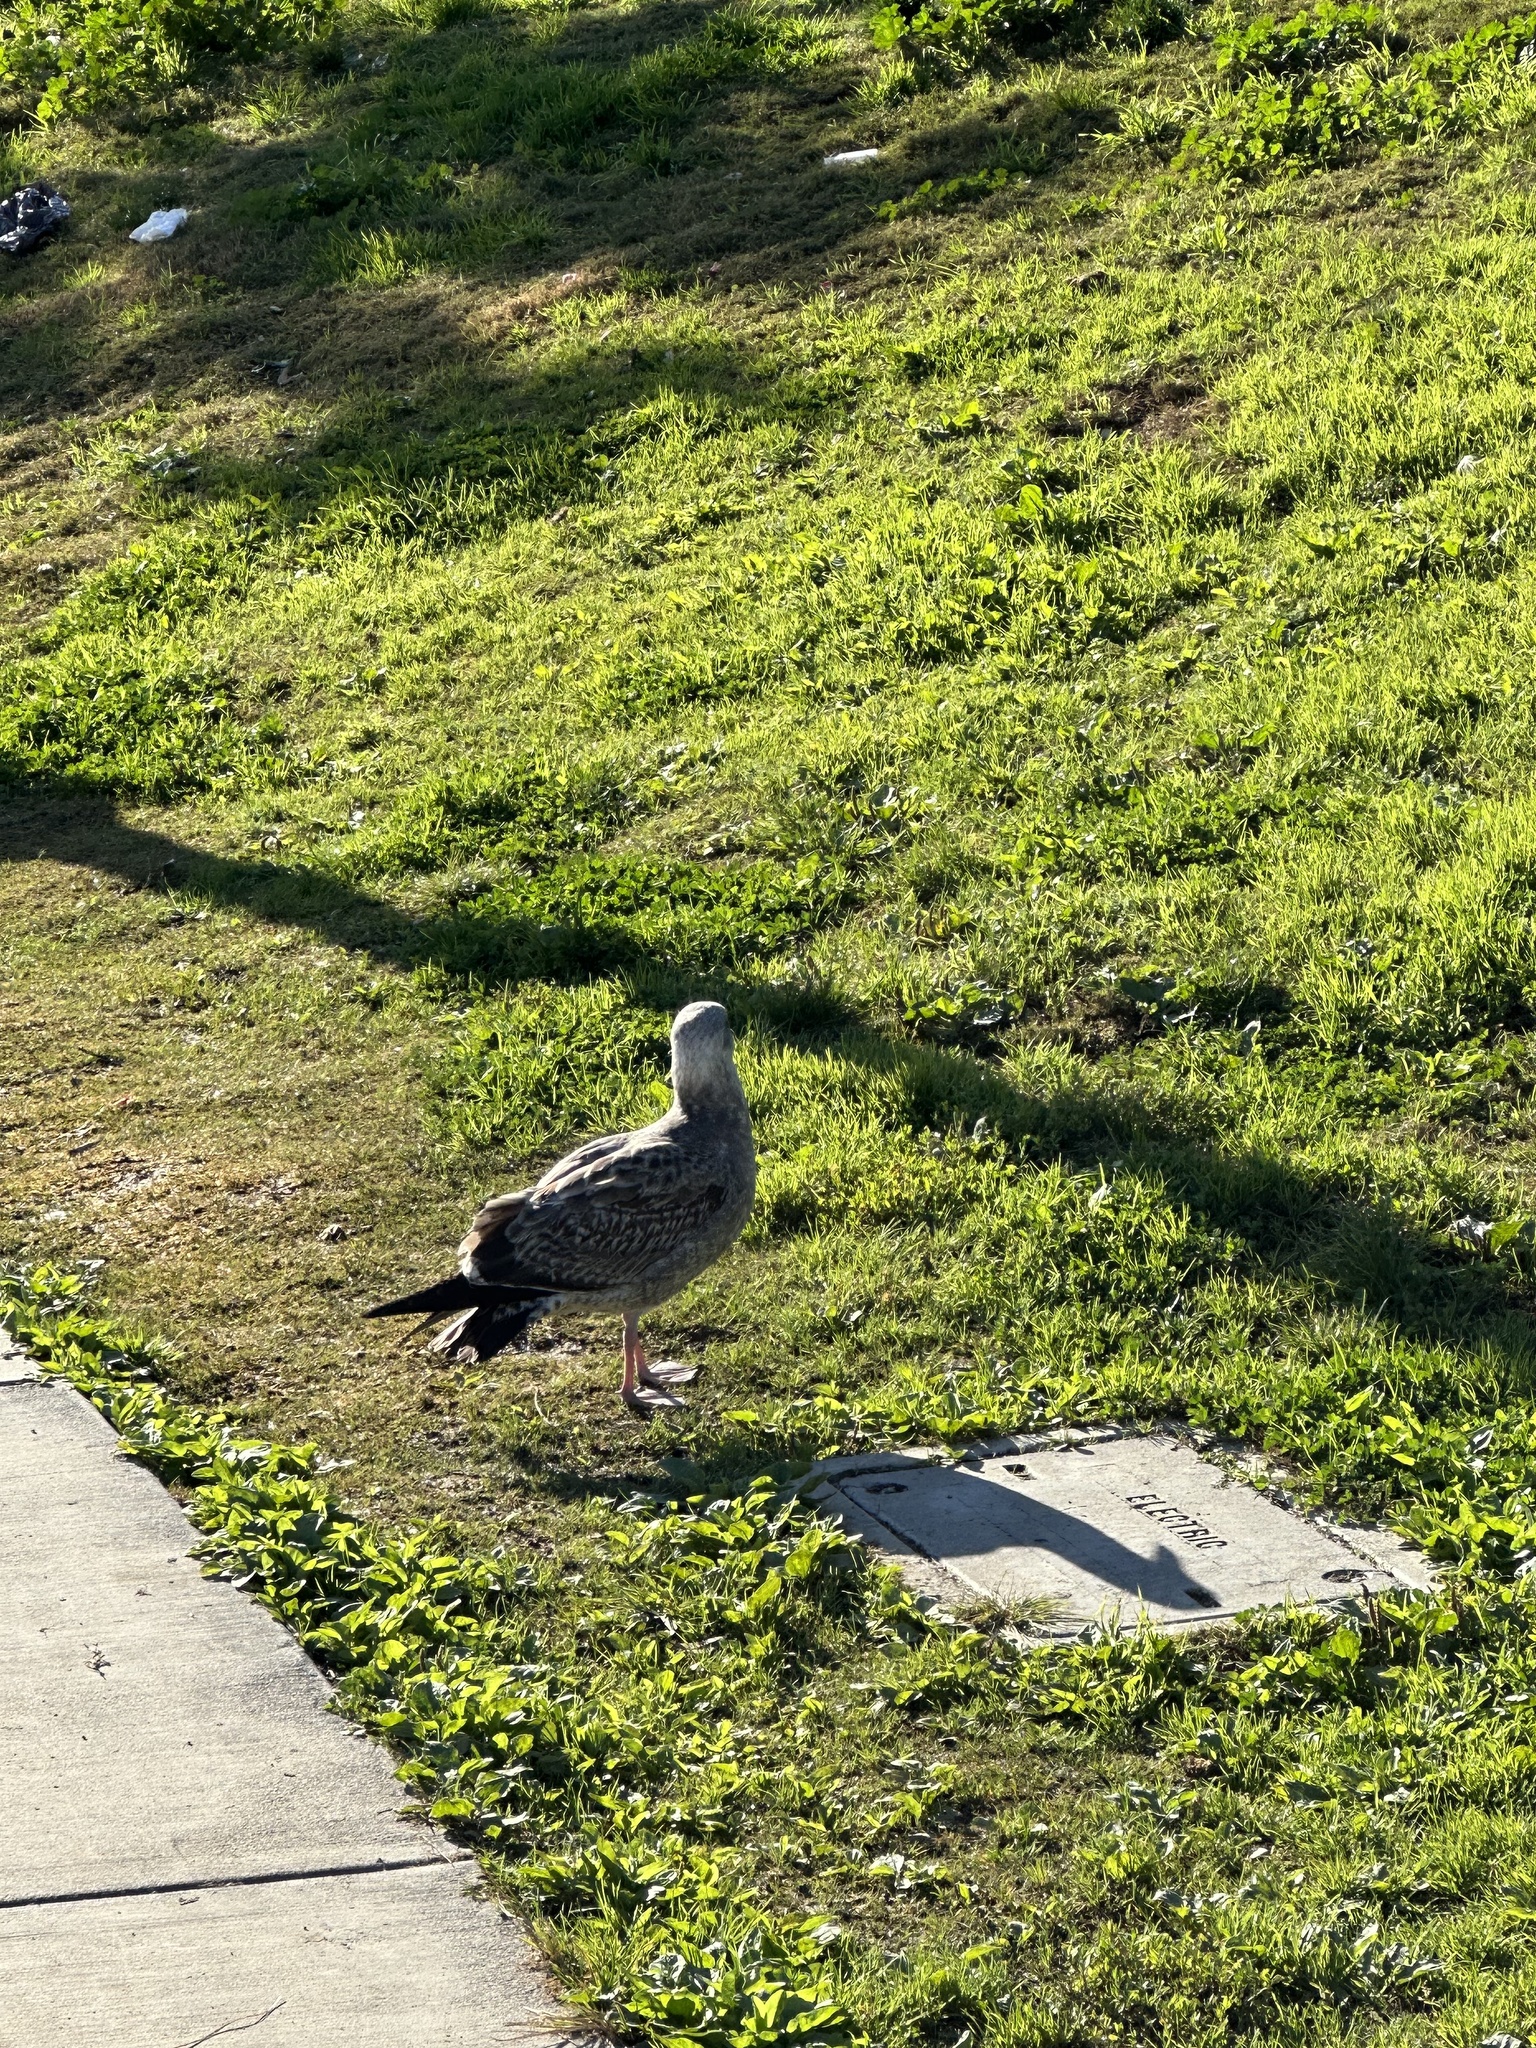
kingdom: Animalia
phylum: Chordata
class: Aves
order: Charadriiformes
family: Laridae
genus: Larus
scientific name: Larus occidentalis
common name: Western gull
